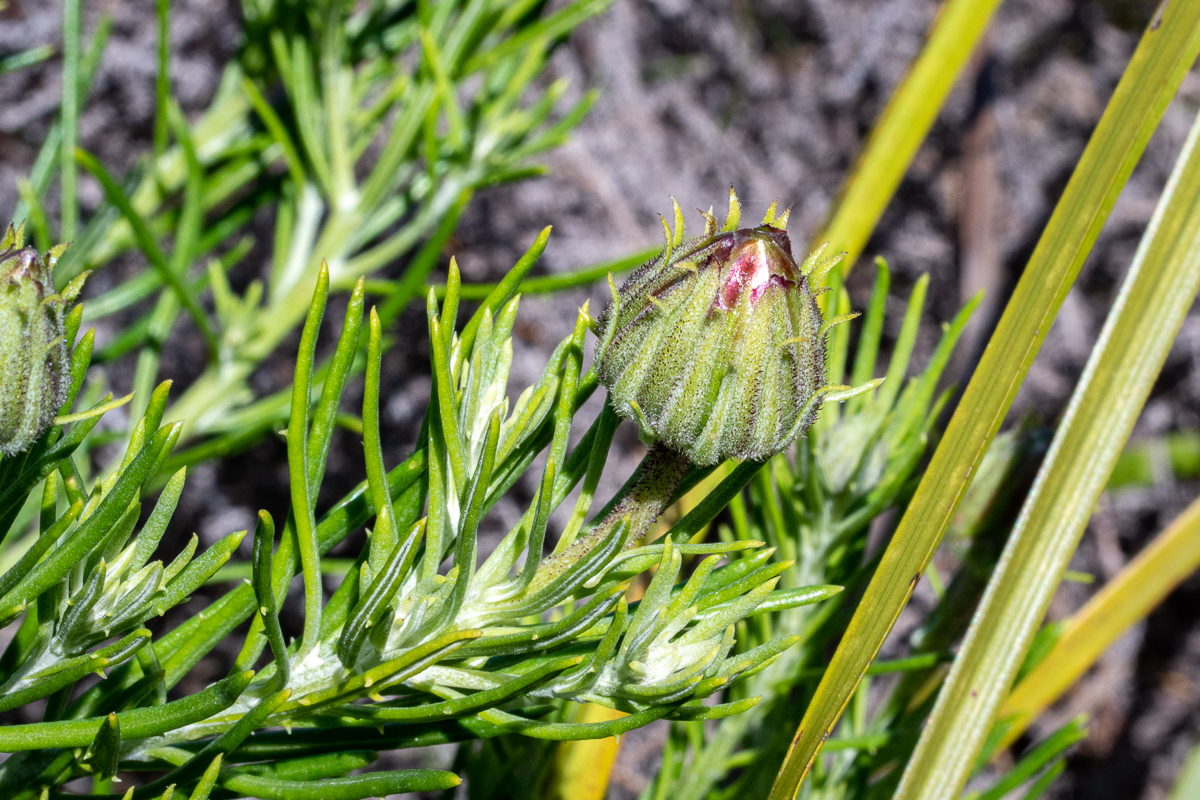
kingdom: Plantae
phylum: Tracheophyta
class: Magnoliopsida
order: Asterales
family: Asteraceae
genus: Heterolepis
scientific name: Heterolepis aliena
